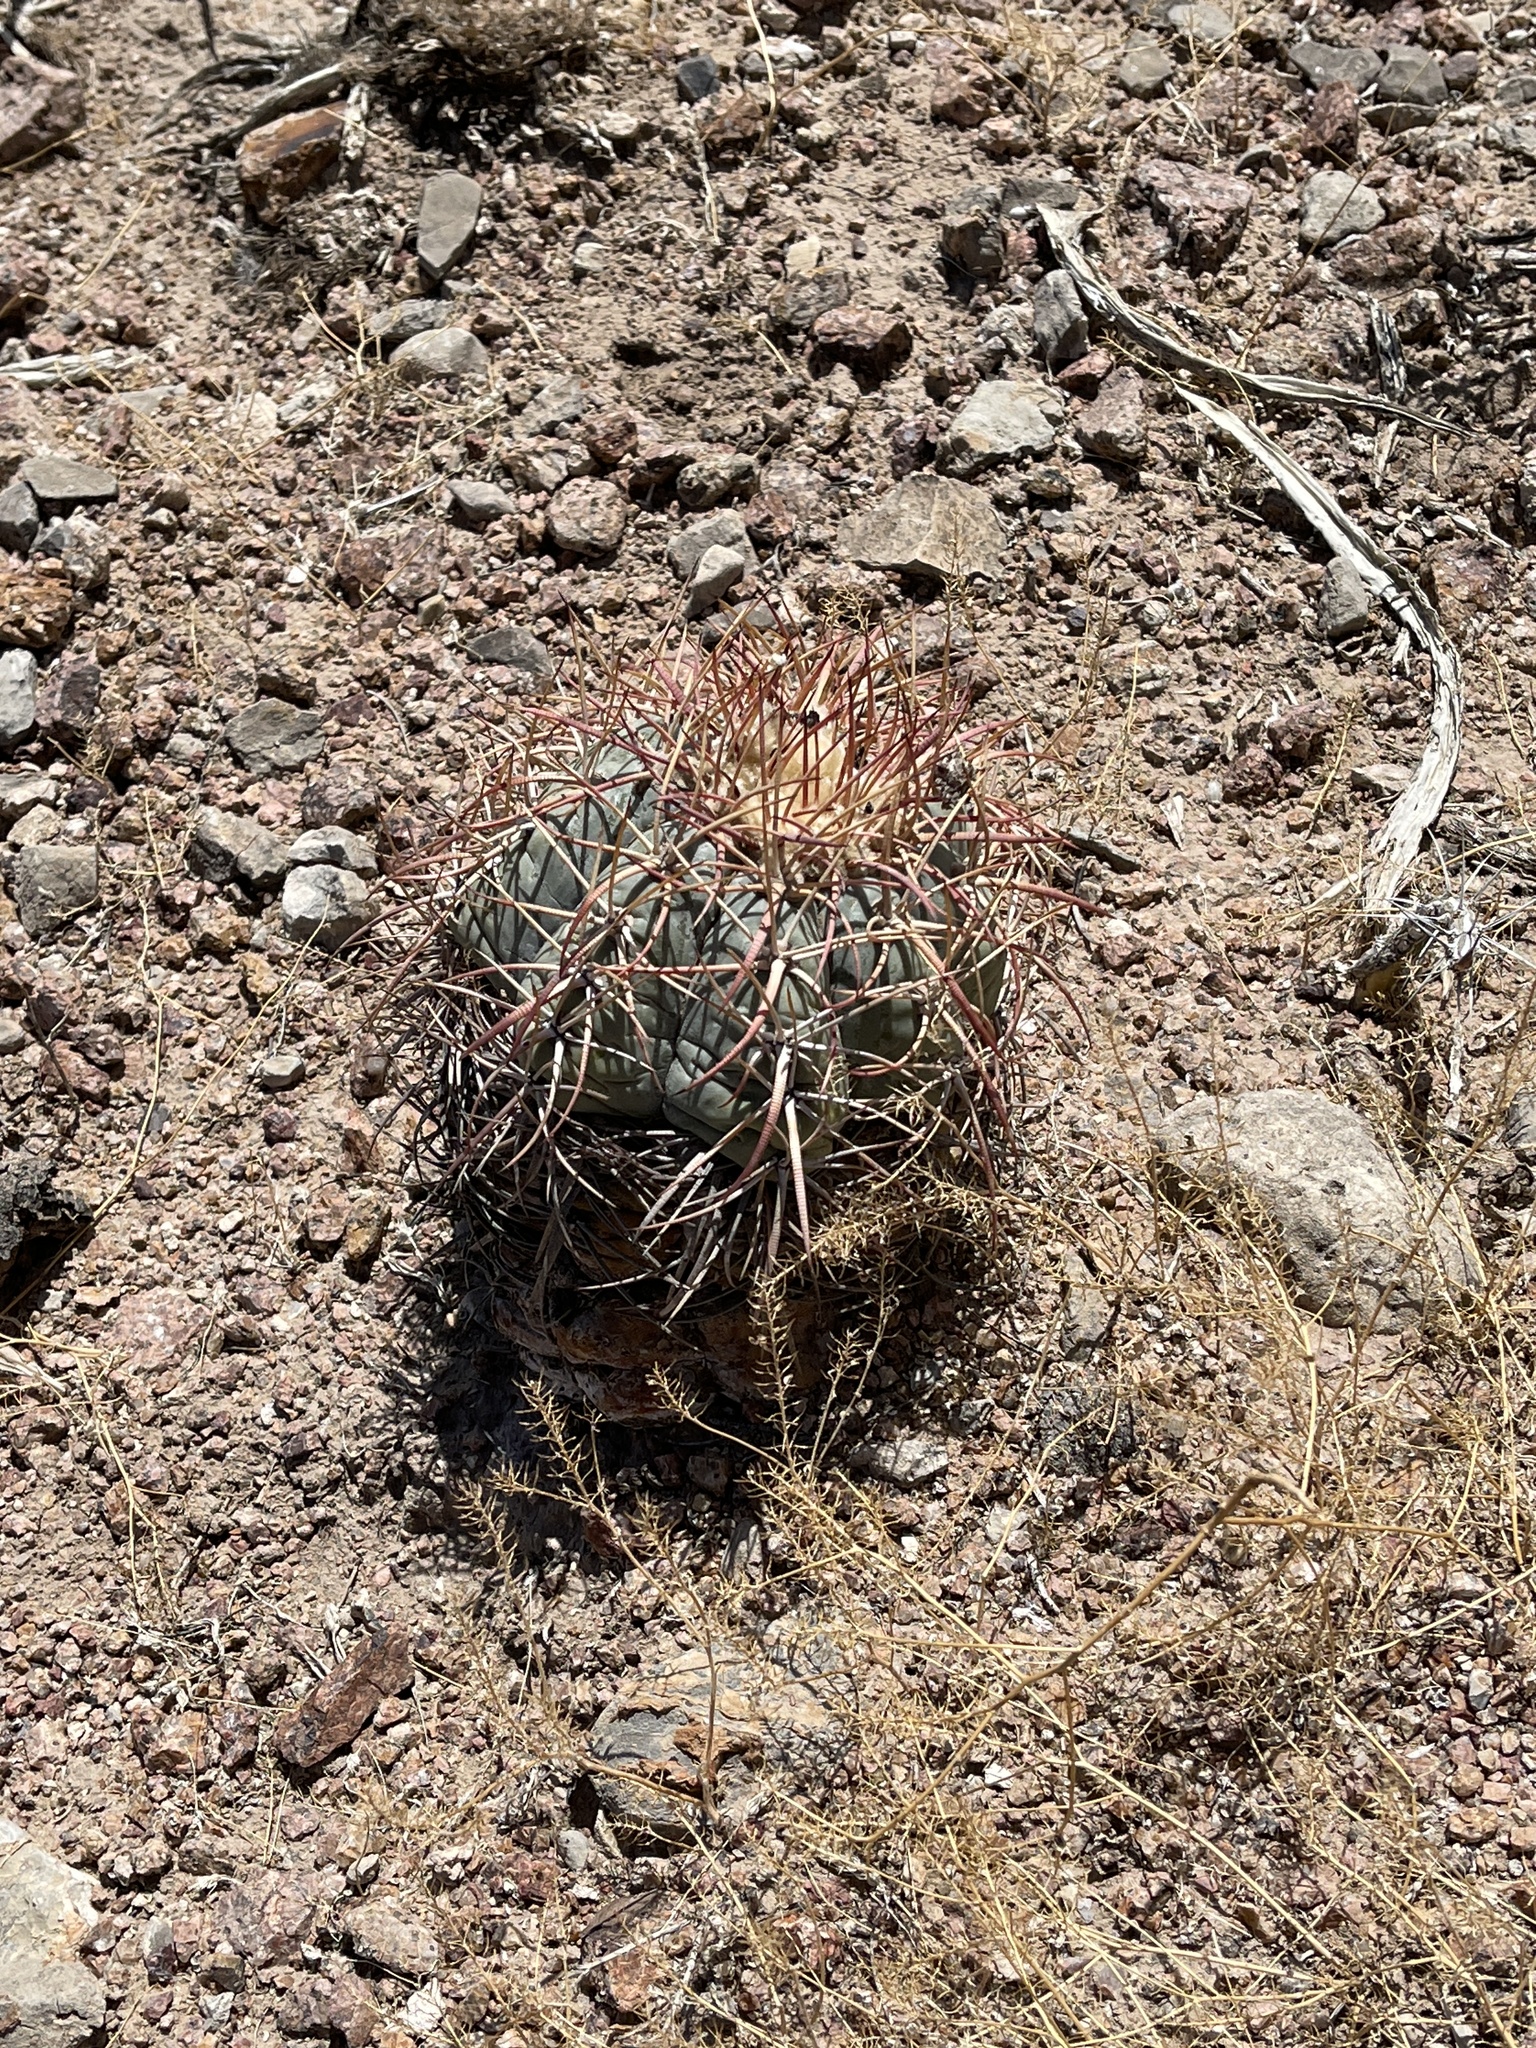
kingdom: Plantae
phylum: Tracheophyta
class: Magnoliopsida
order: Caryophyllales
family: Cactaceae
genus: Echinocactus
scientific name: Echinocactus horizonthalonius
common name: Devilshead
